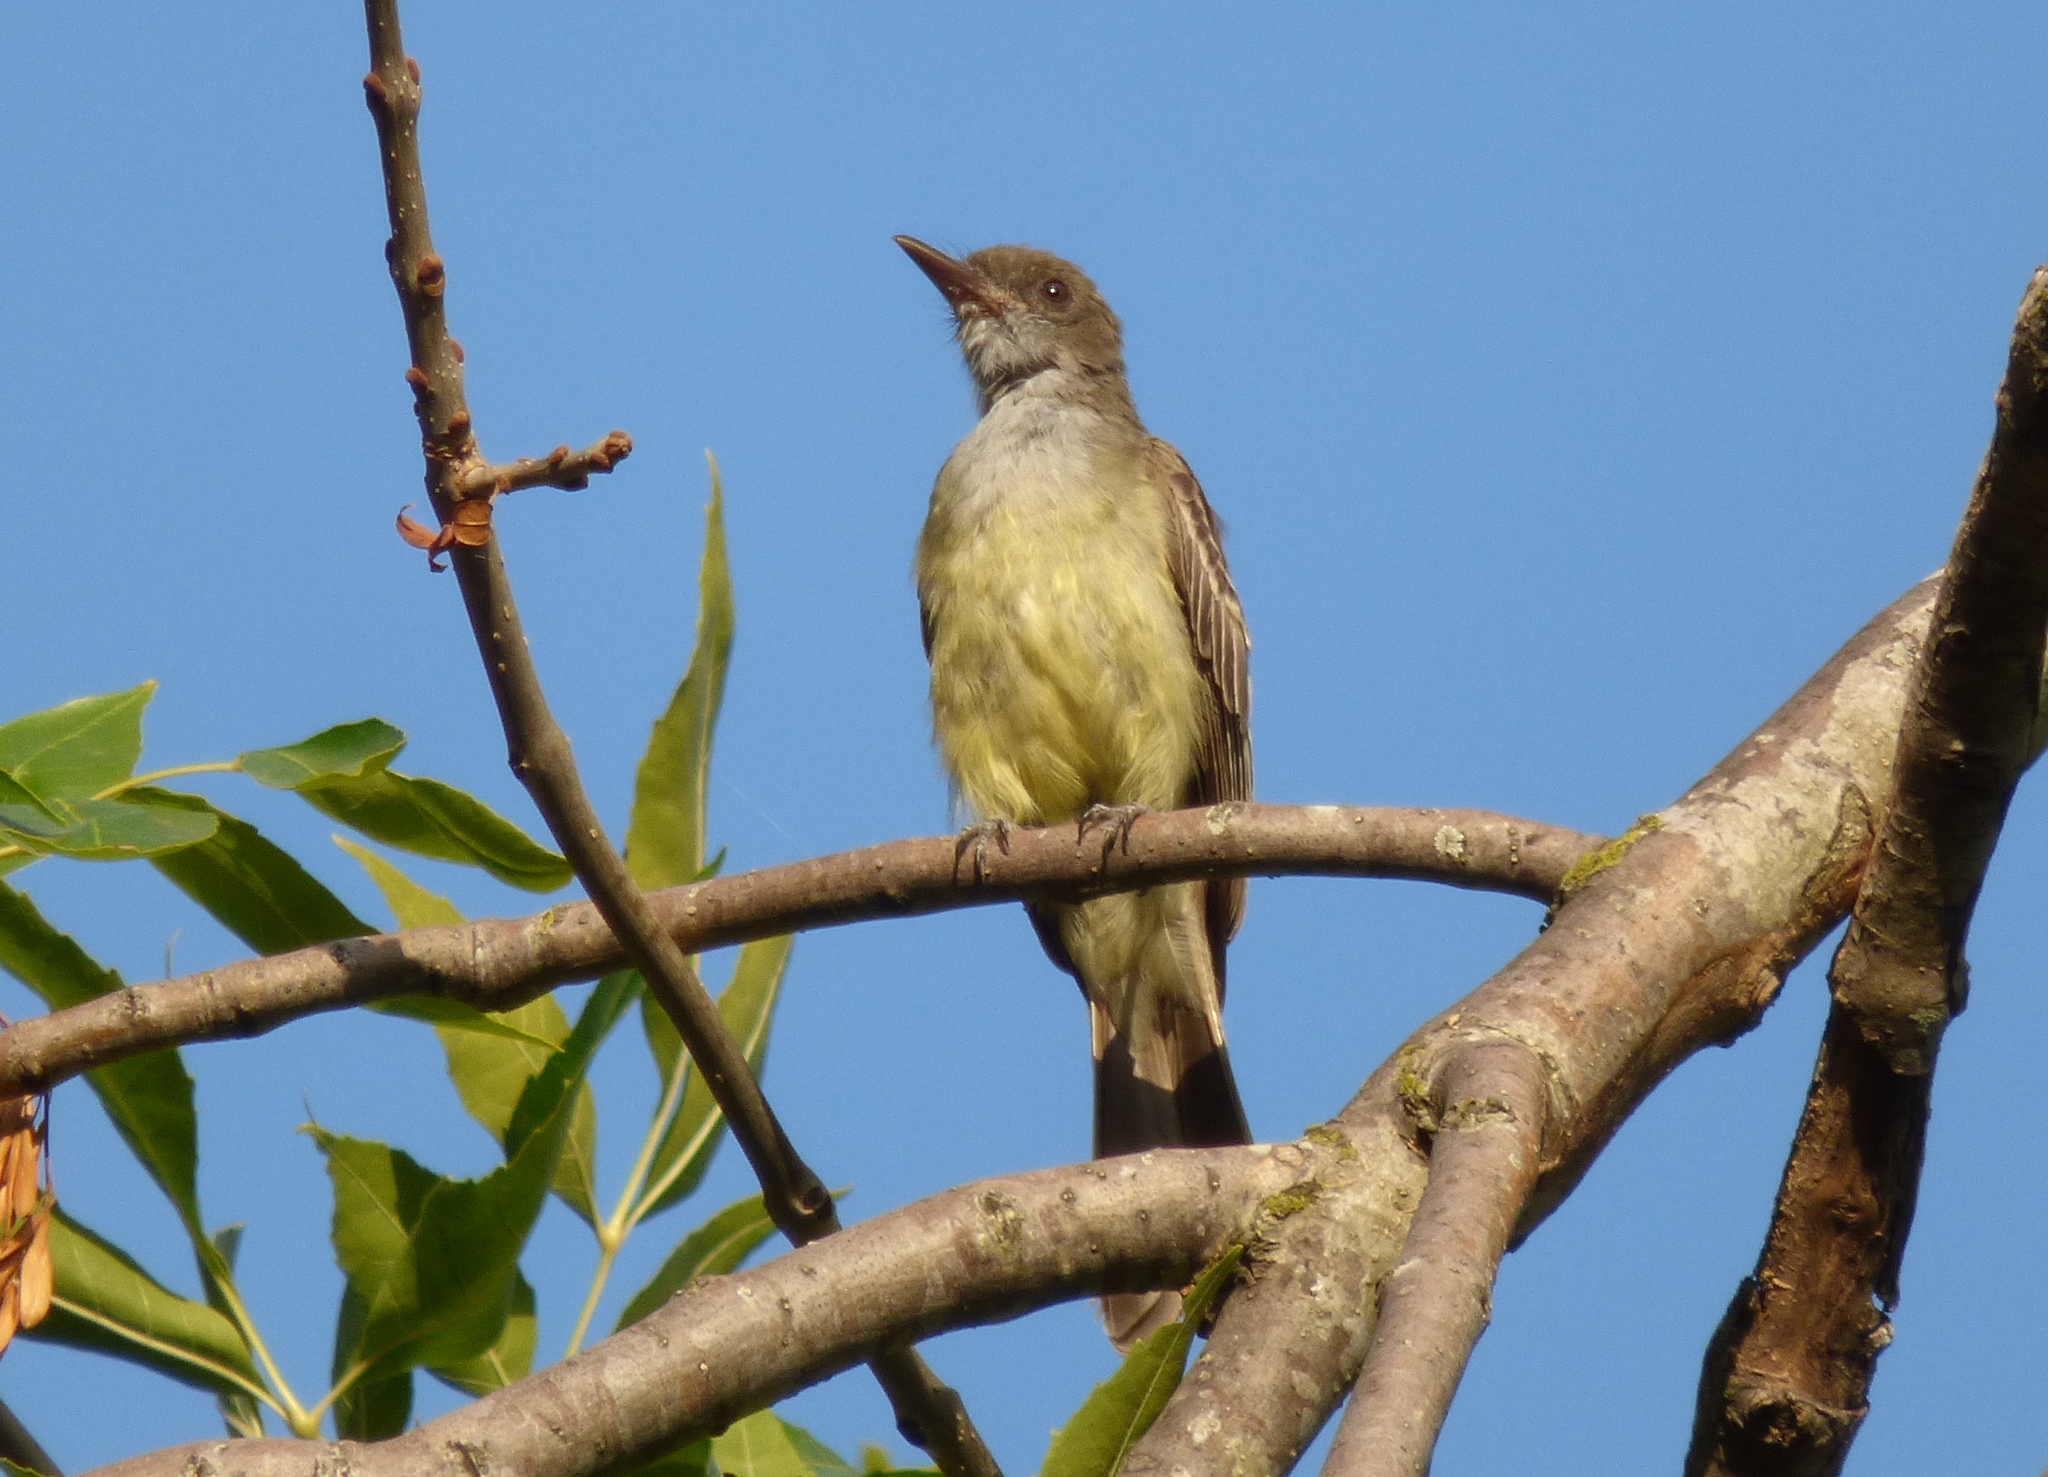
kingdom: Animalia
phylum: Chordata
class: Aves
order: Passeriformes
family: Tyrannidae
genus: Myiarchus
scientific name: Myiarchus swainsoni
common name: Swainson's flycatcher
